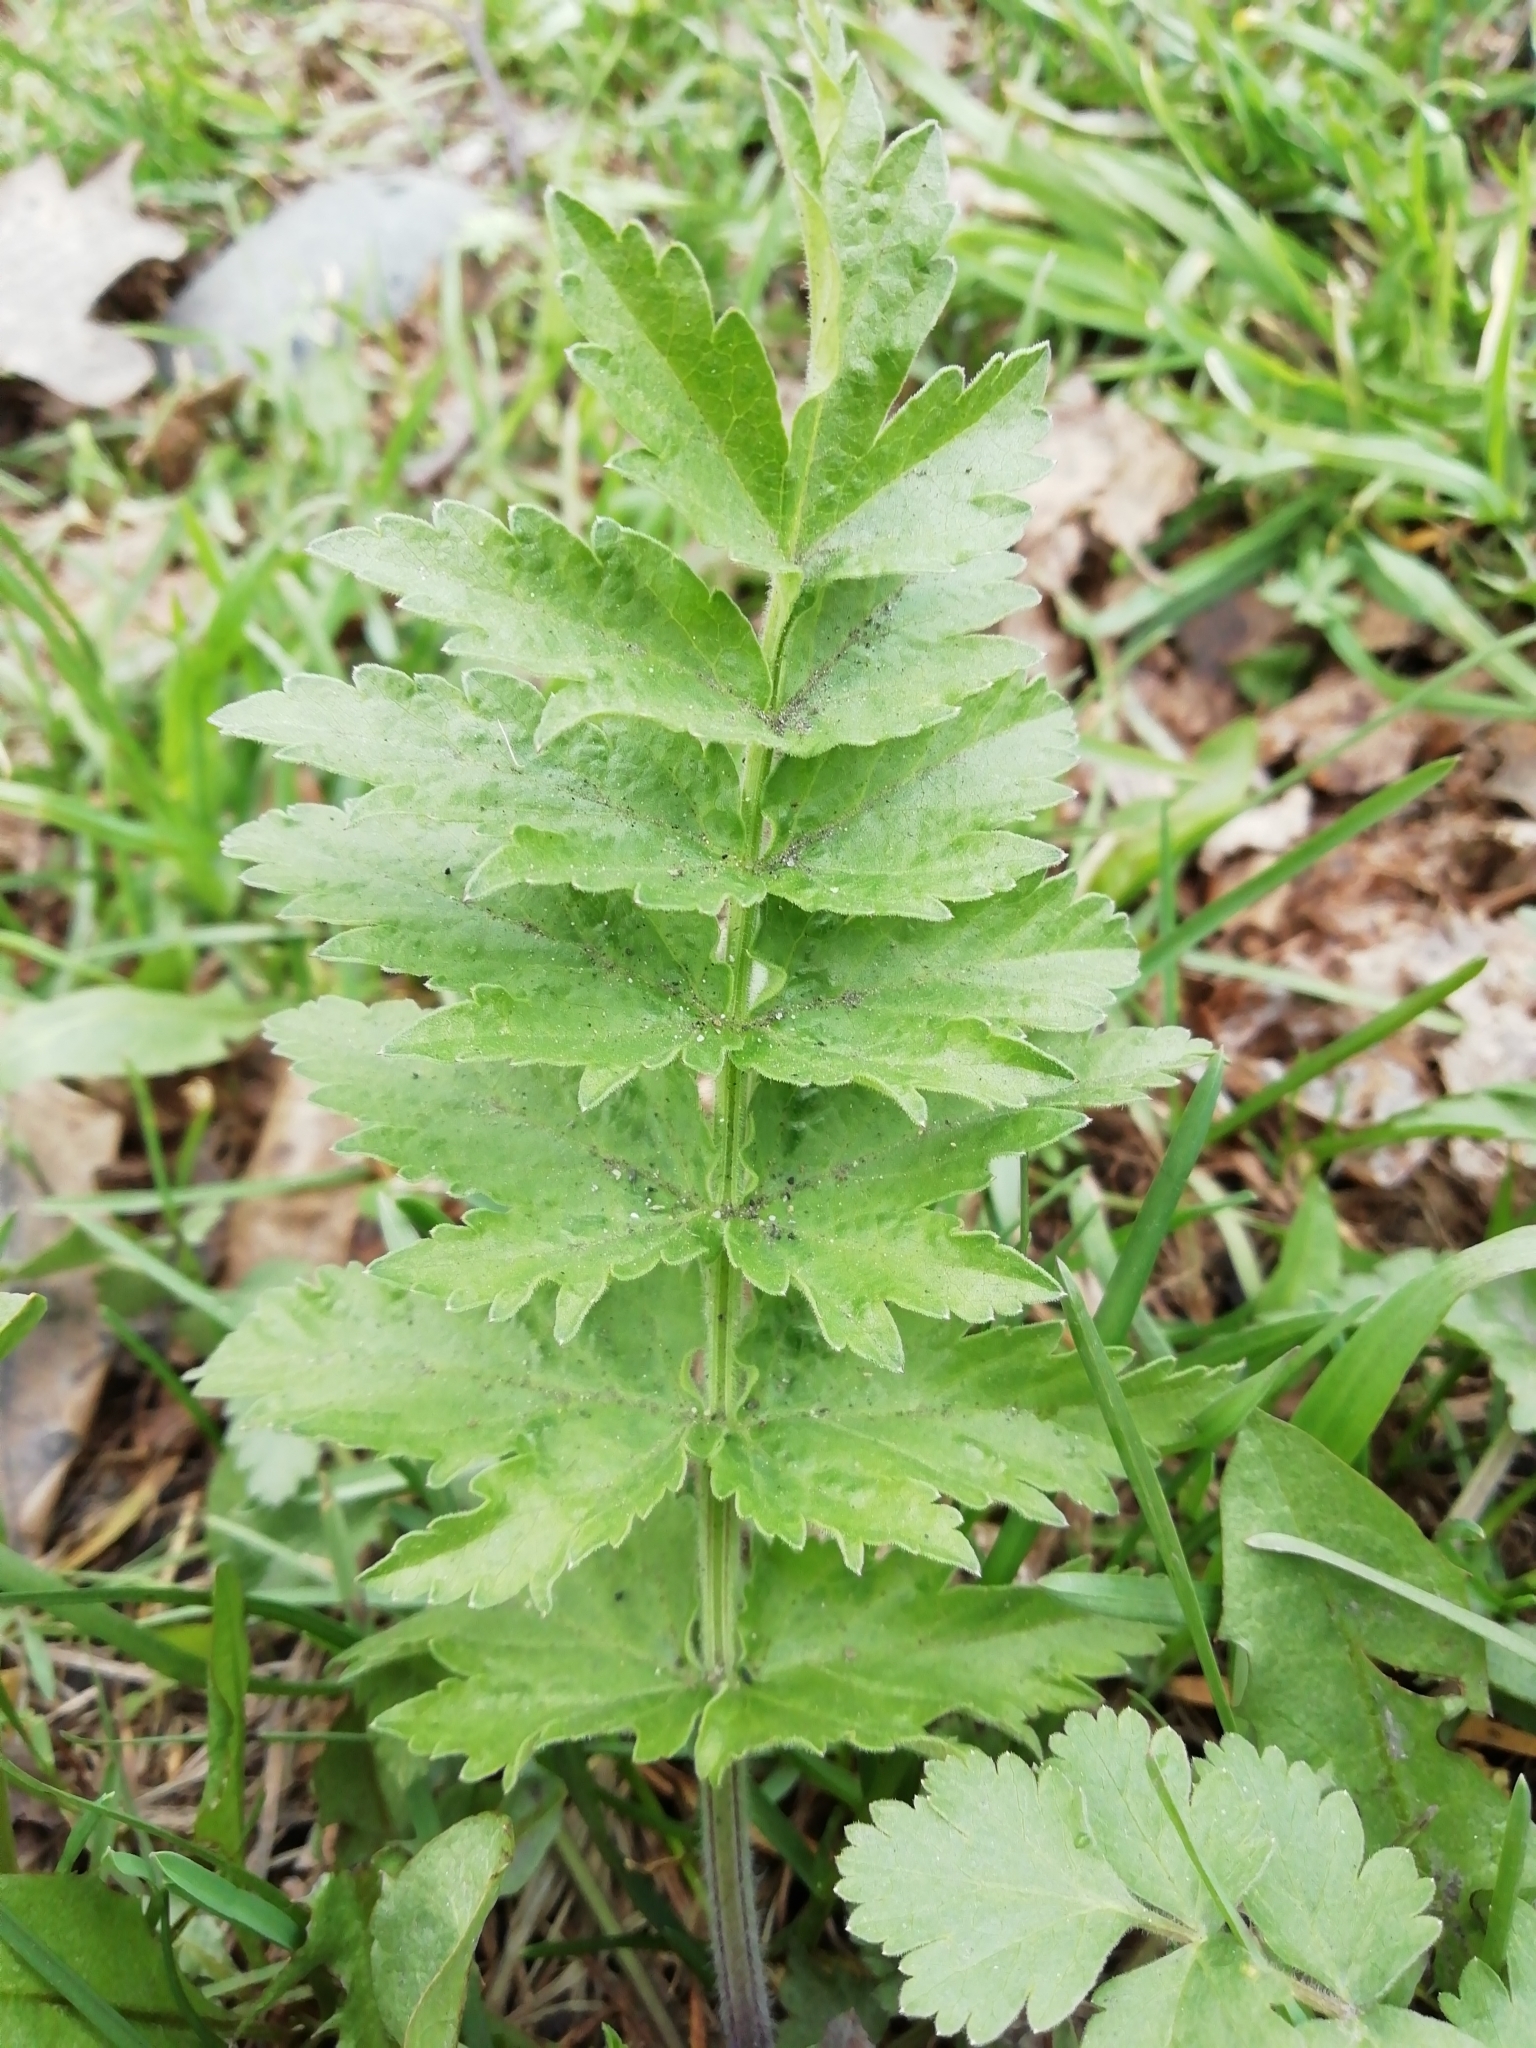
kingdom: Plantae
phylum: Tracheophyta
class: Magnoliopsida
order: Apiales
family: Apiaceae
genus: Pastinaca
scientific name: Pastinaca sativa
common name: Wild parsnip
